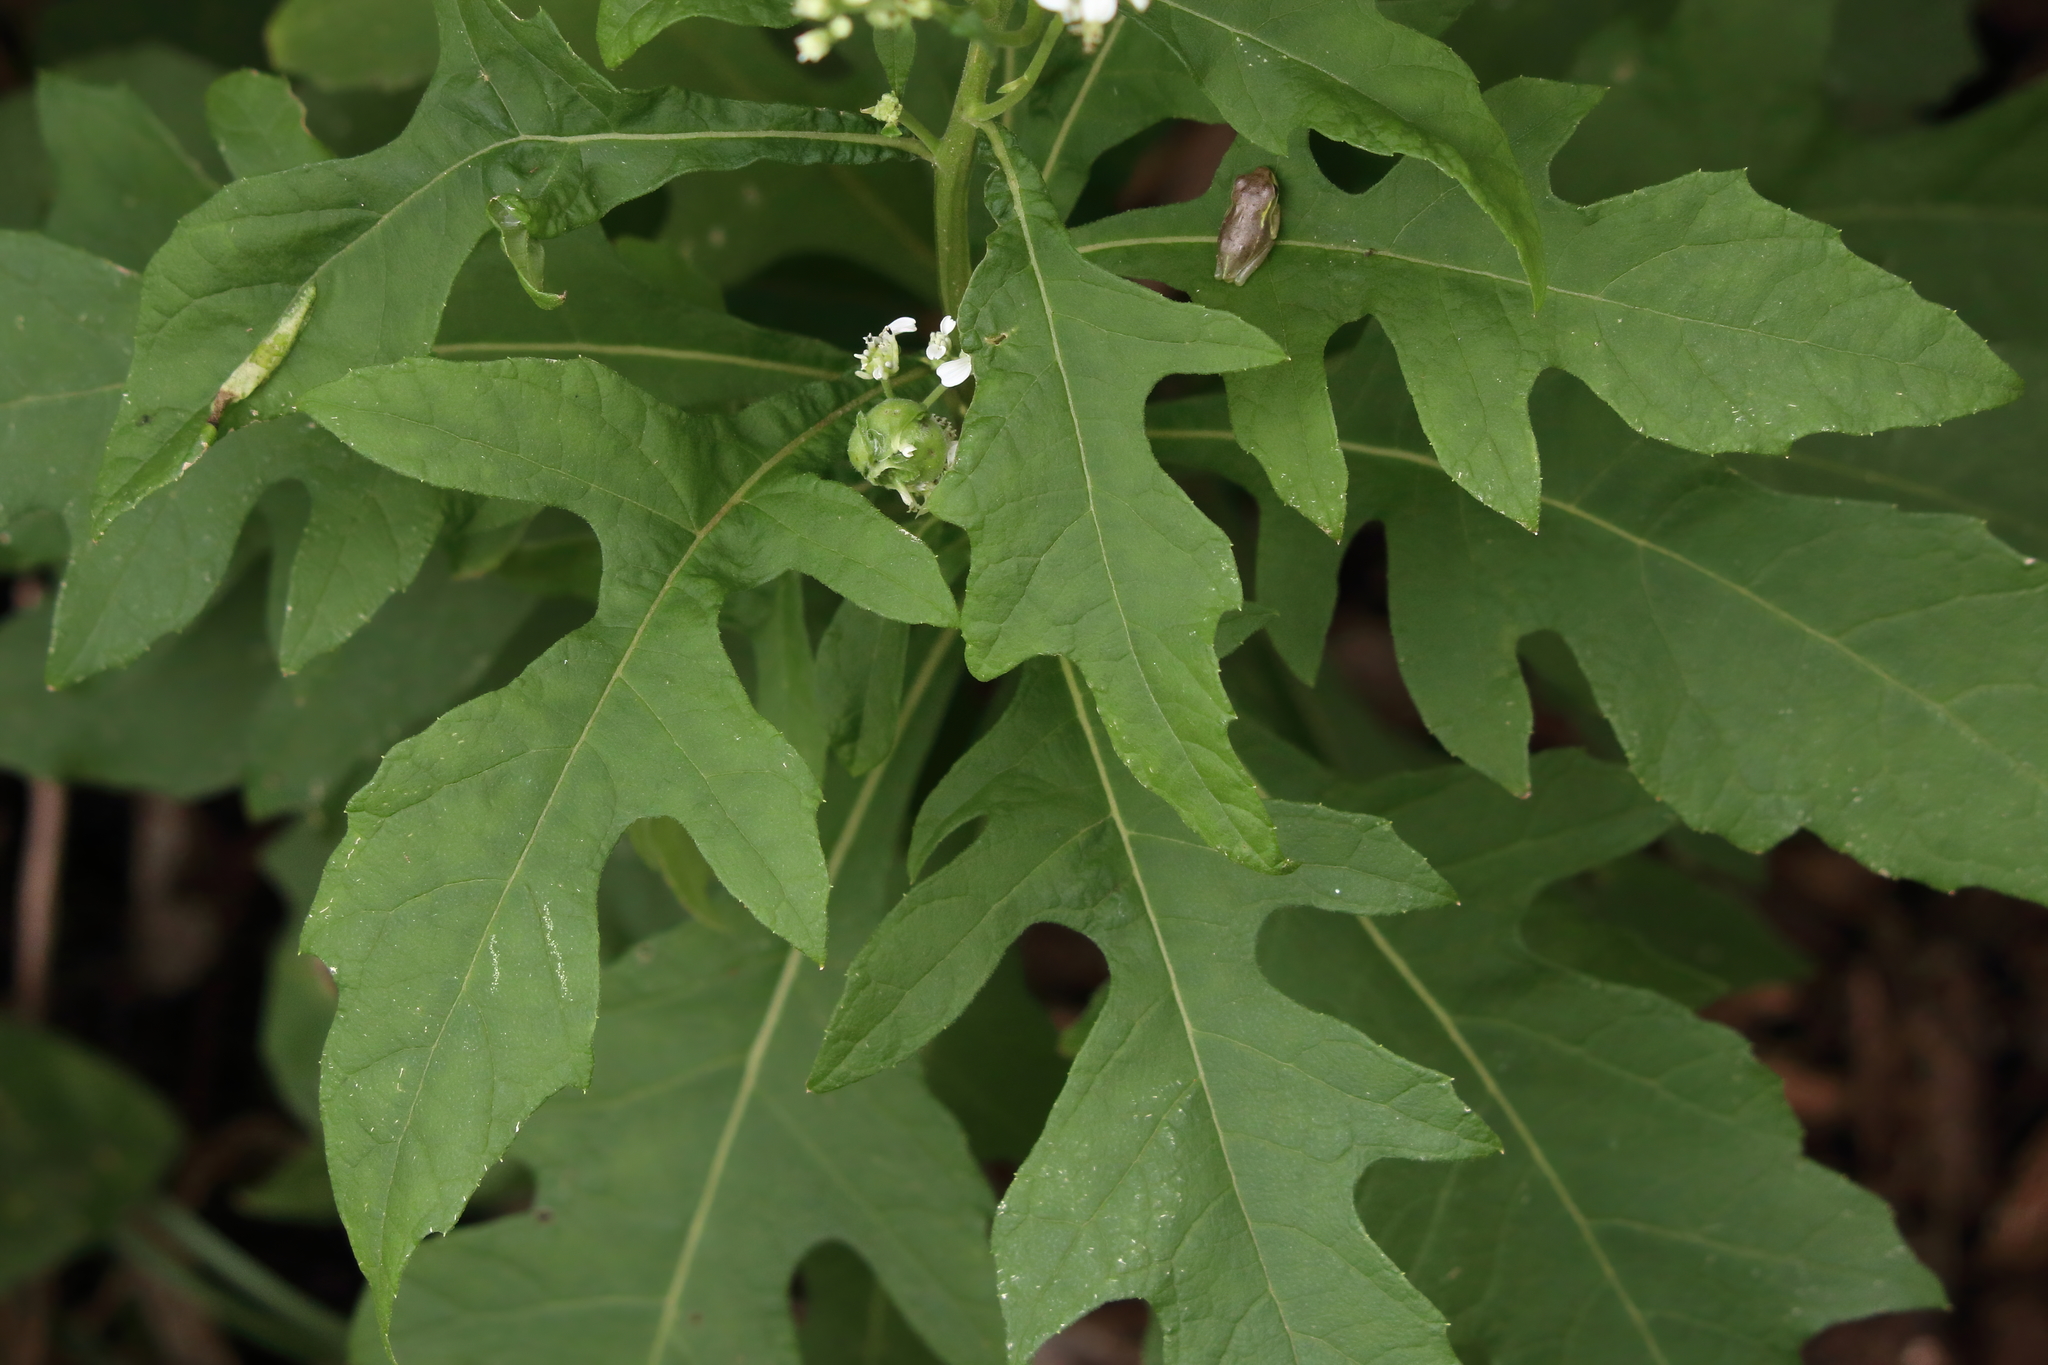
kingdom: Plantae
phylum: Tracheophyta
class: Magnoliopsida
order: Asterales
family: Asteraceae
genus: Verbesina
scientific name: Verbesina virginica
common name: Frostweed
